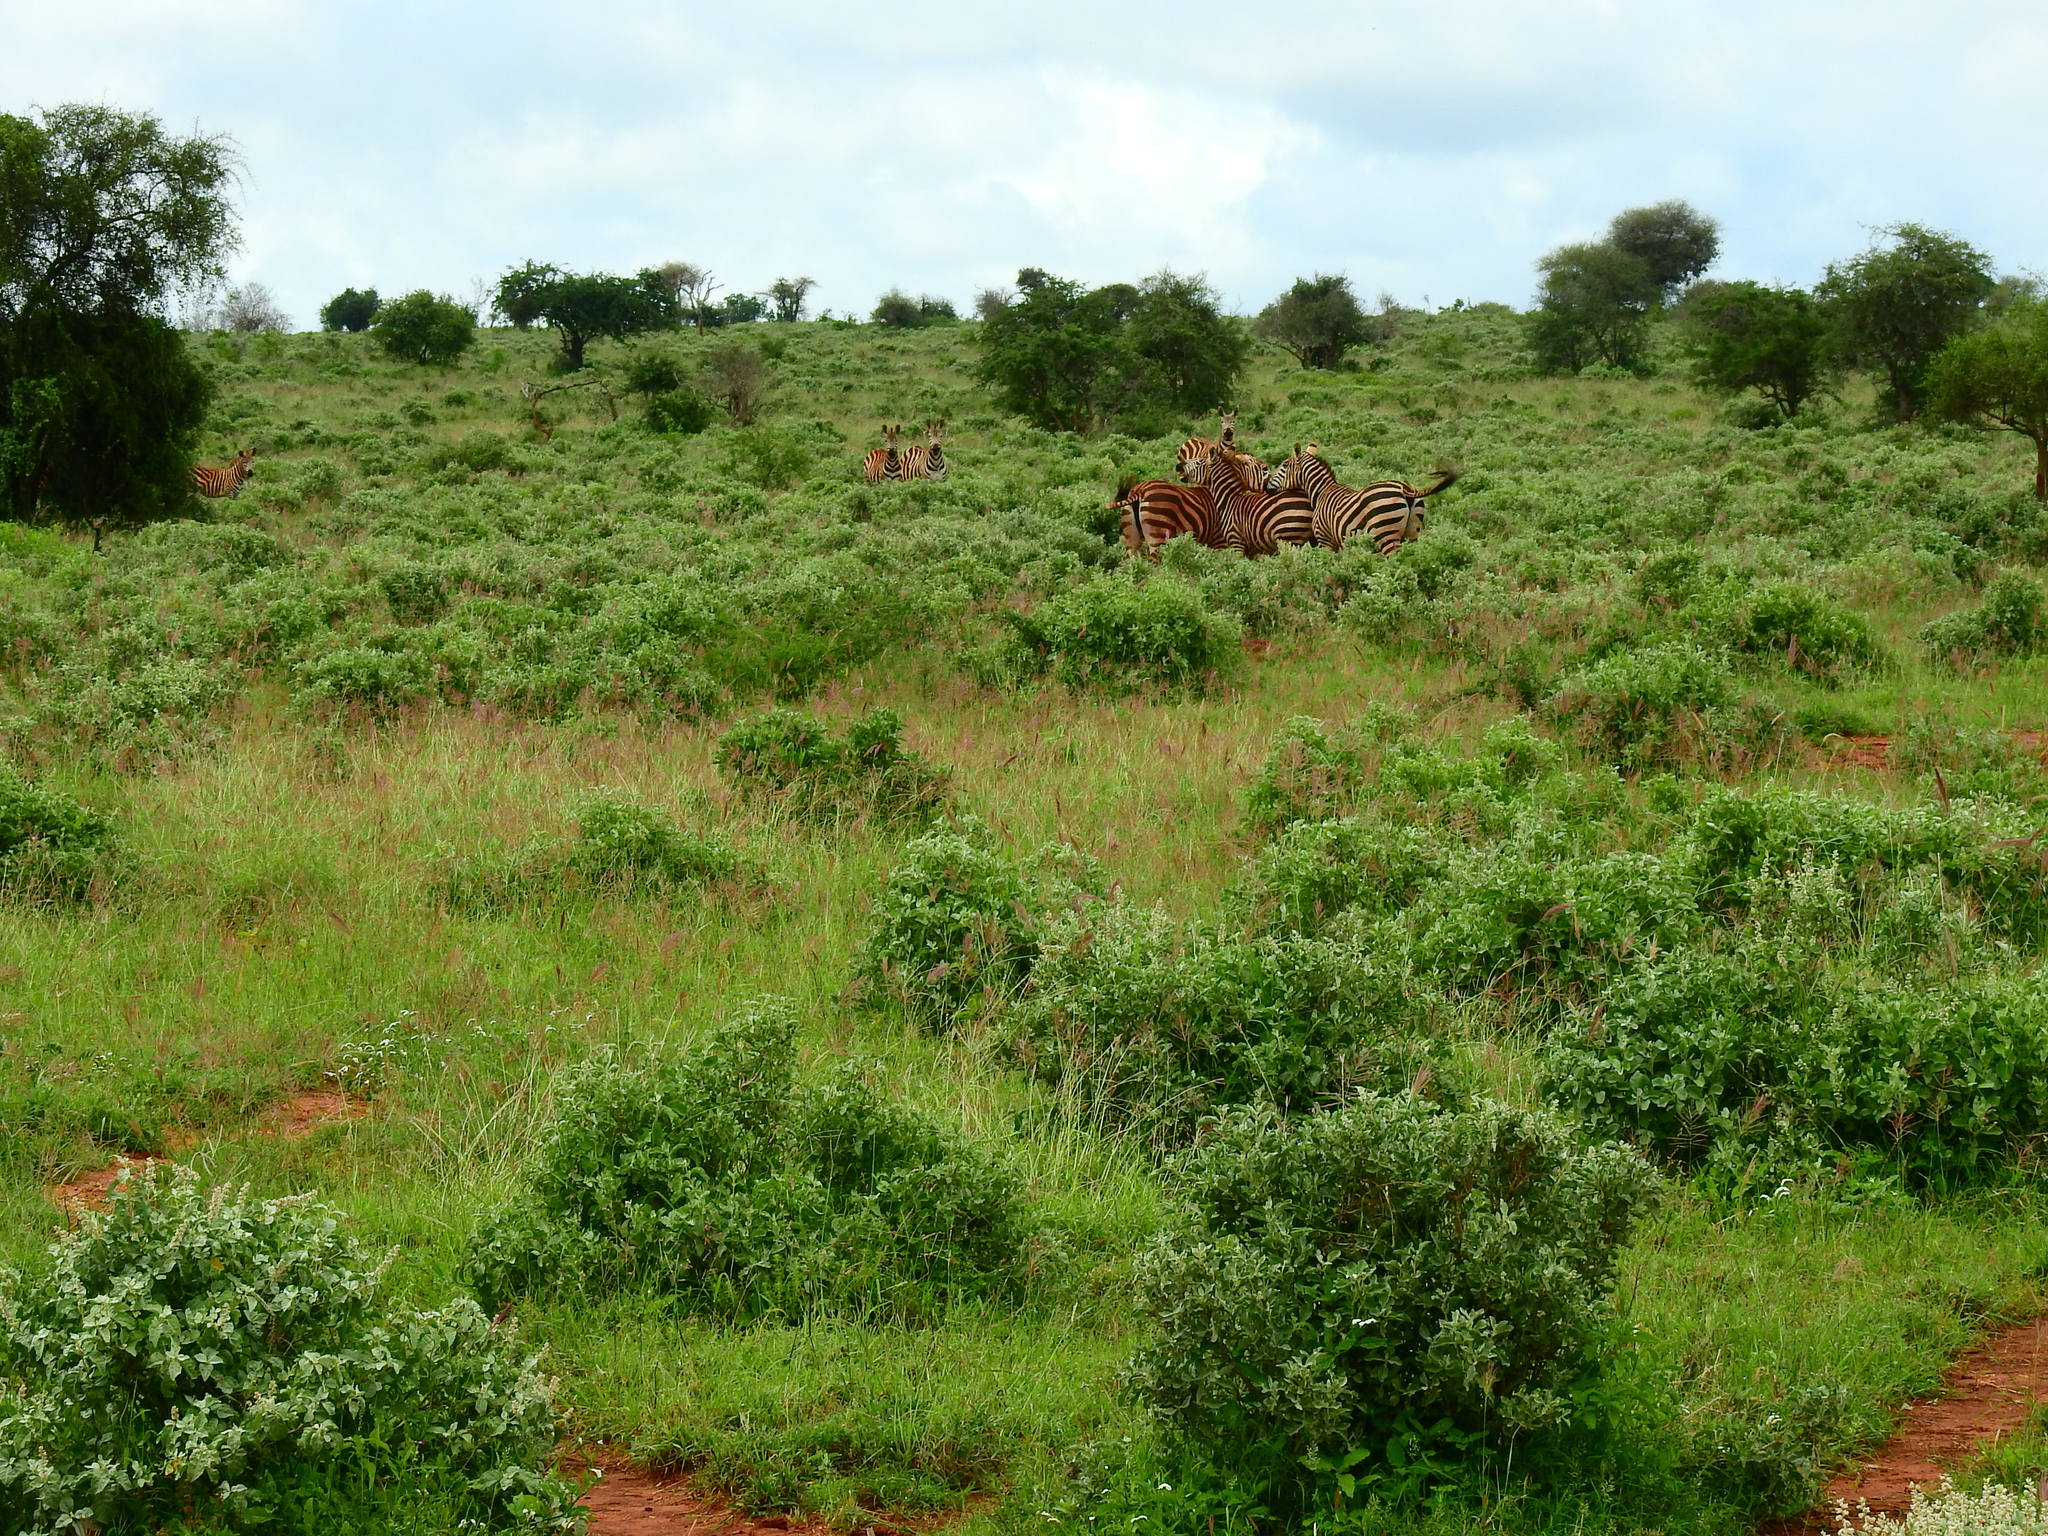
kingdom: Animalia
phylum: Chordata
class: Mammalia
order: Perissodactyla
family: Equidae
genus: Equus
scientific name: Equus quagga
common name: Plains zebra
